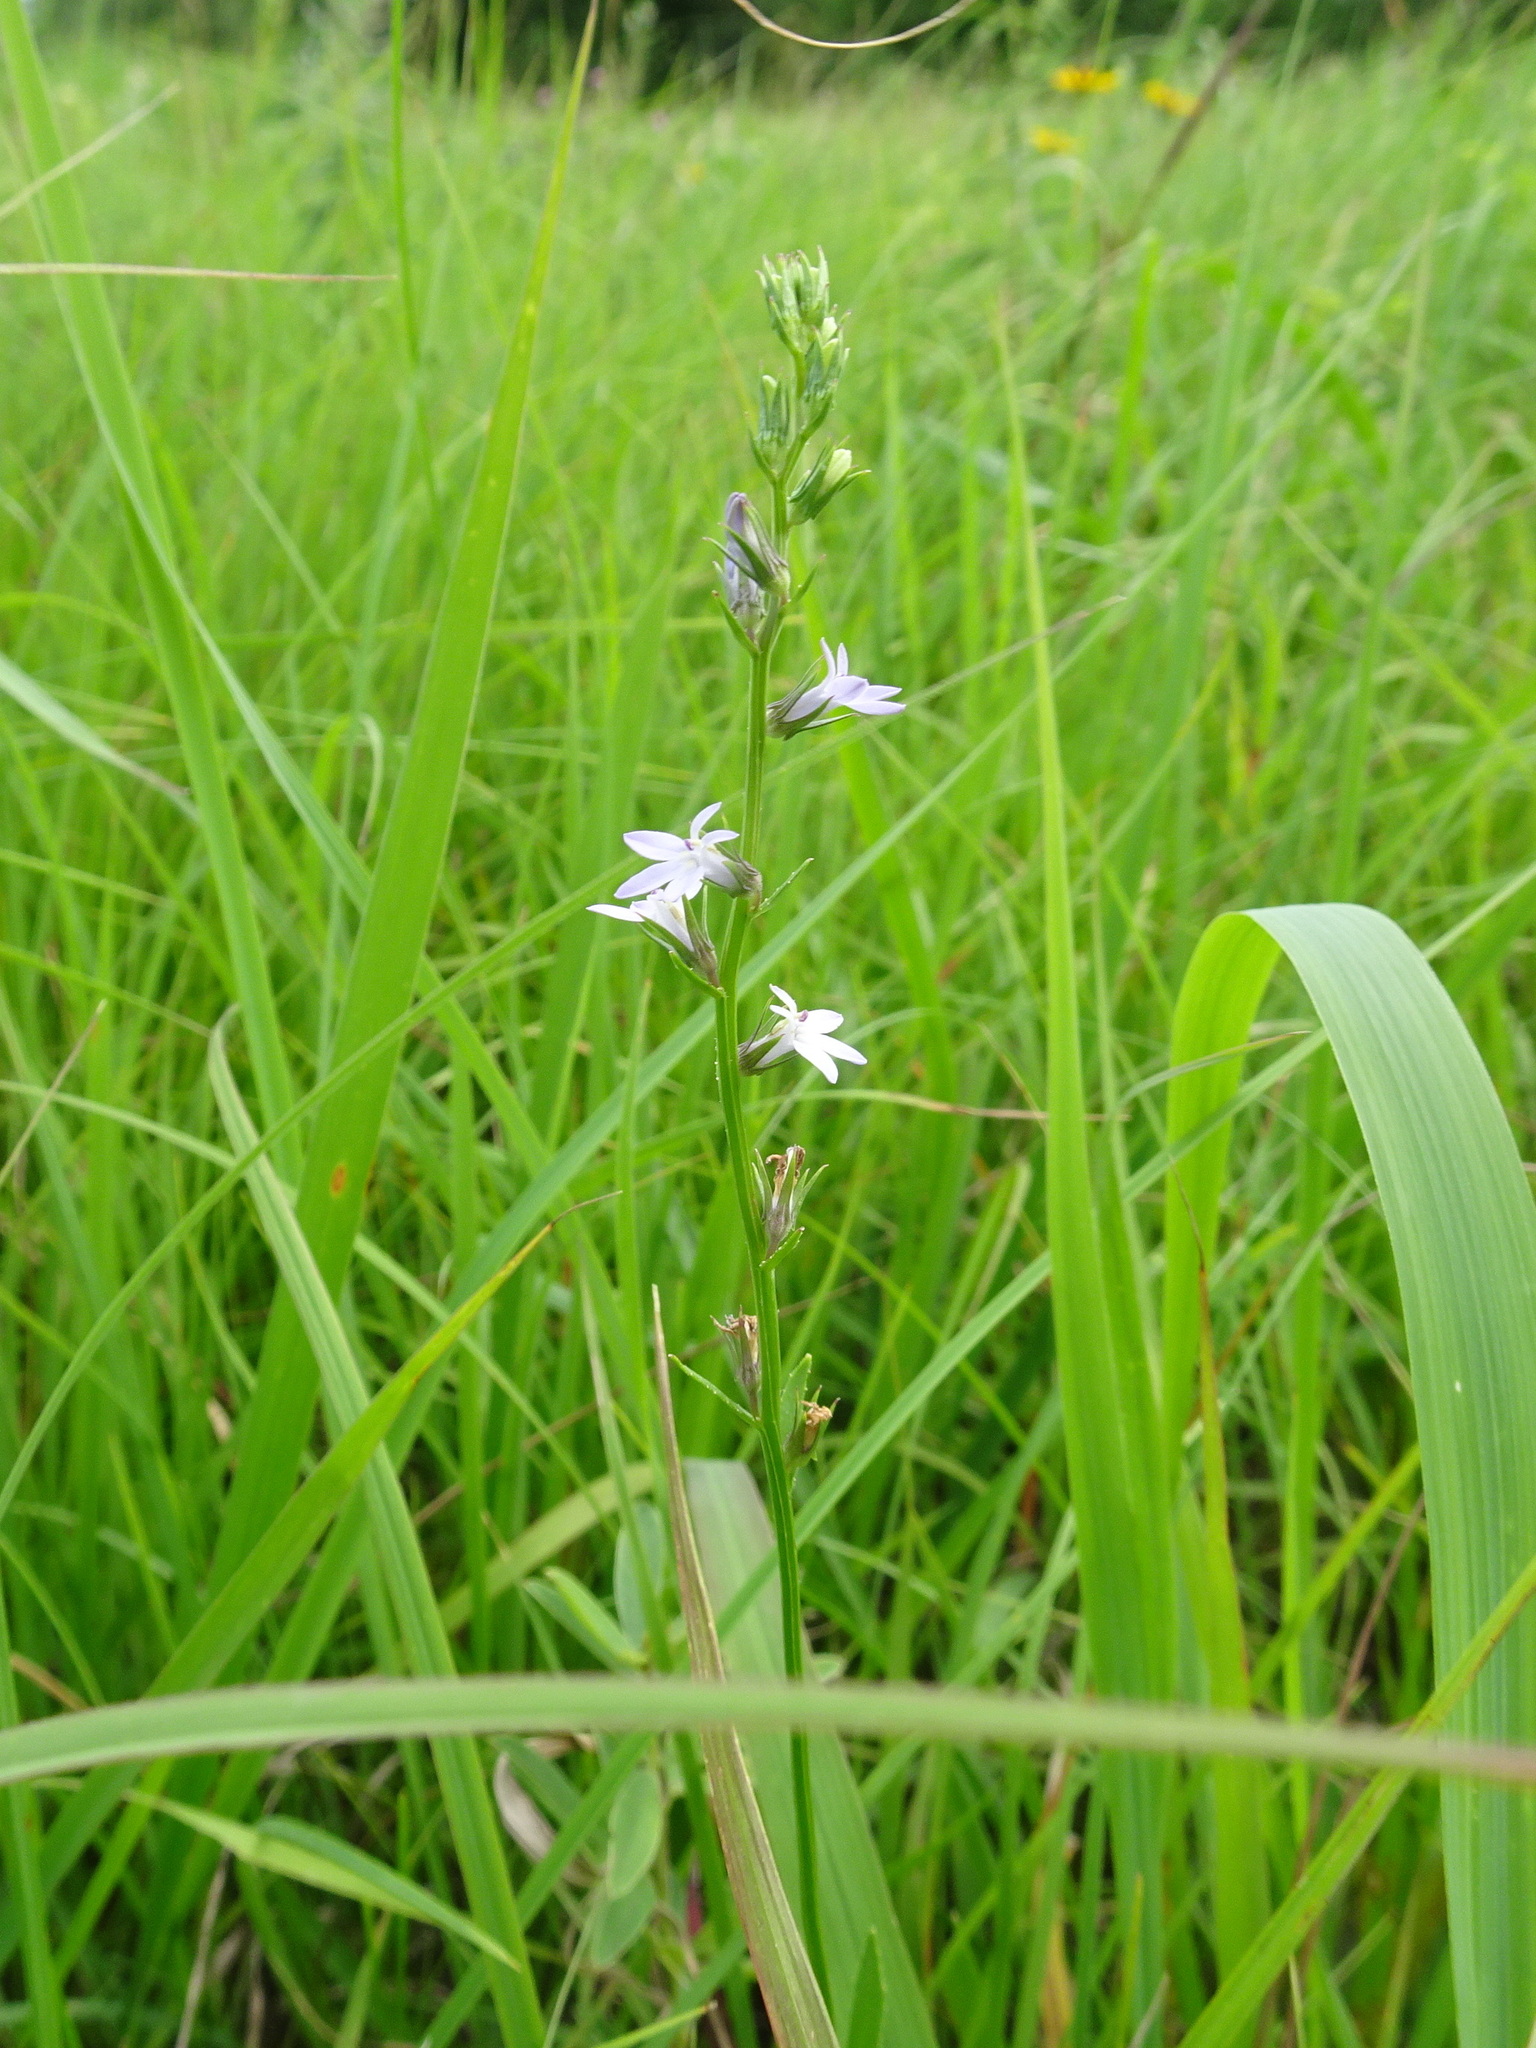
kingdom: Plantae
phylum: Tracheophyta
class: Magnoliopsida
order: Asterales
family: Campanulaceae
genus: Lobelia
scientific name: Lobelia spicata
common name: Pale-spike lobelia
